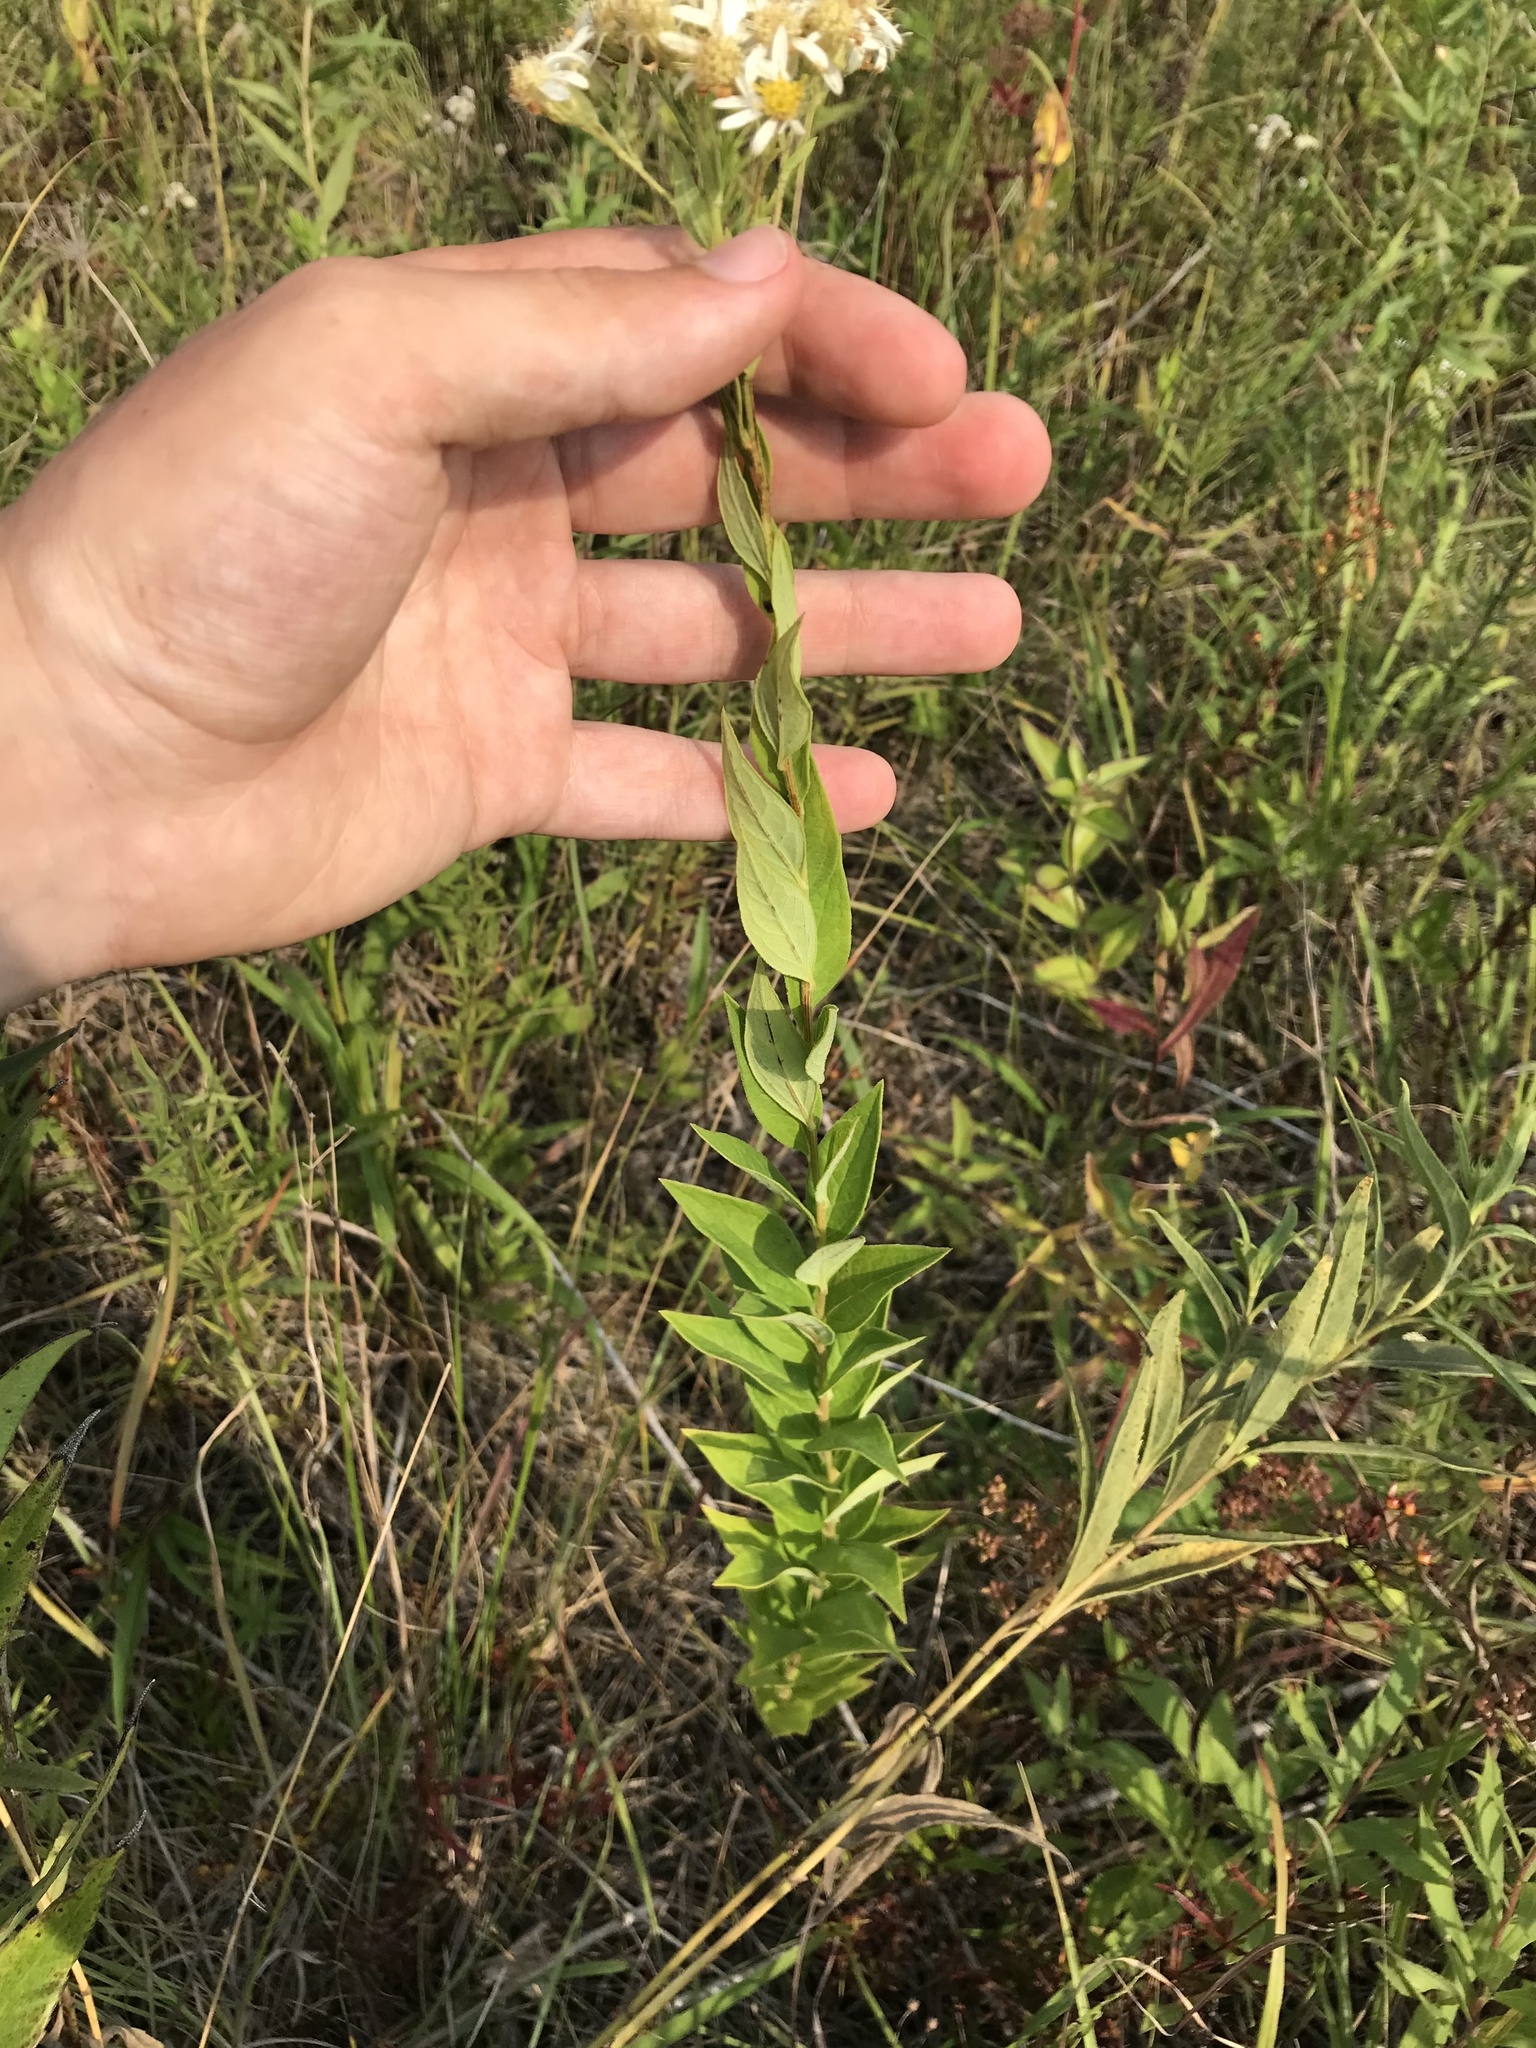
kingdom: Plantae
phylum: Tracheophyta
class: Magnoliopsida
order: Asterales
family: Asteraceae
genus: Doellingeria
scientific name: Doellingeria umbellata
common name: Flat-top white aster
